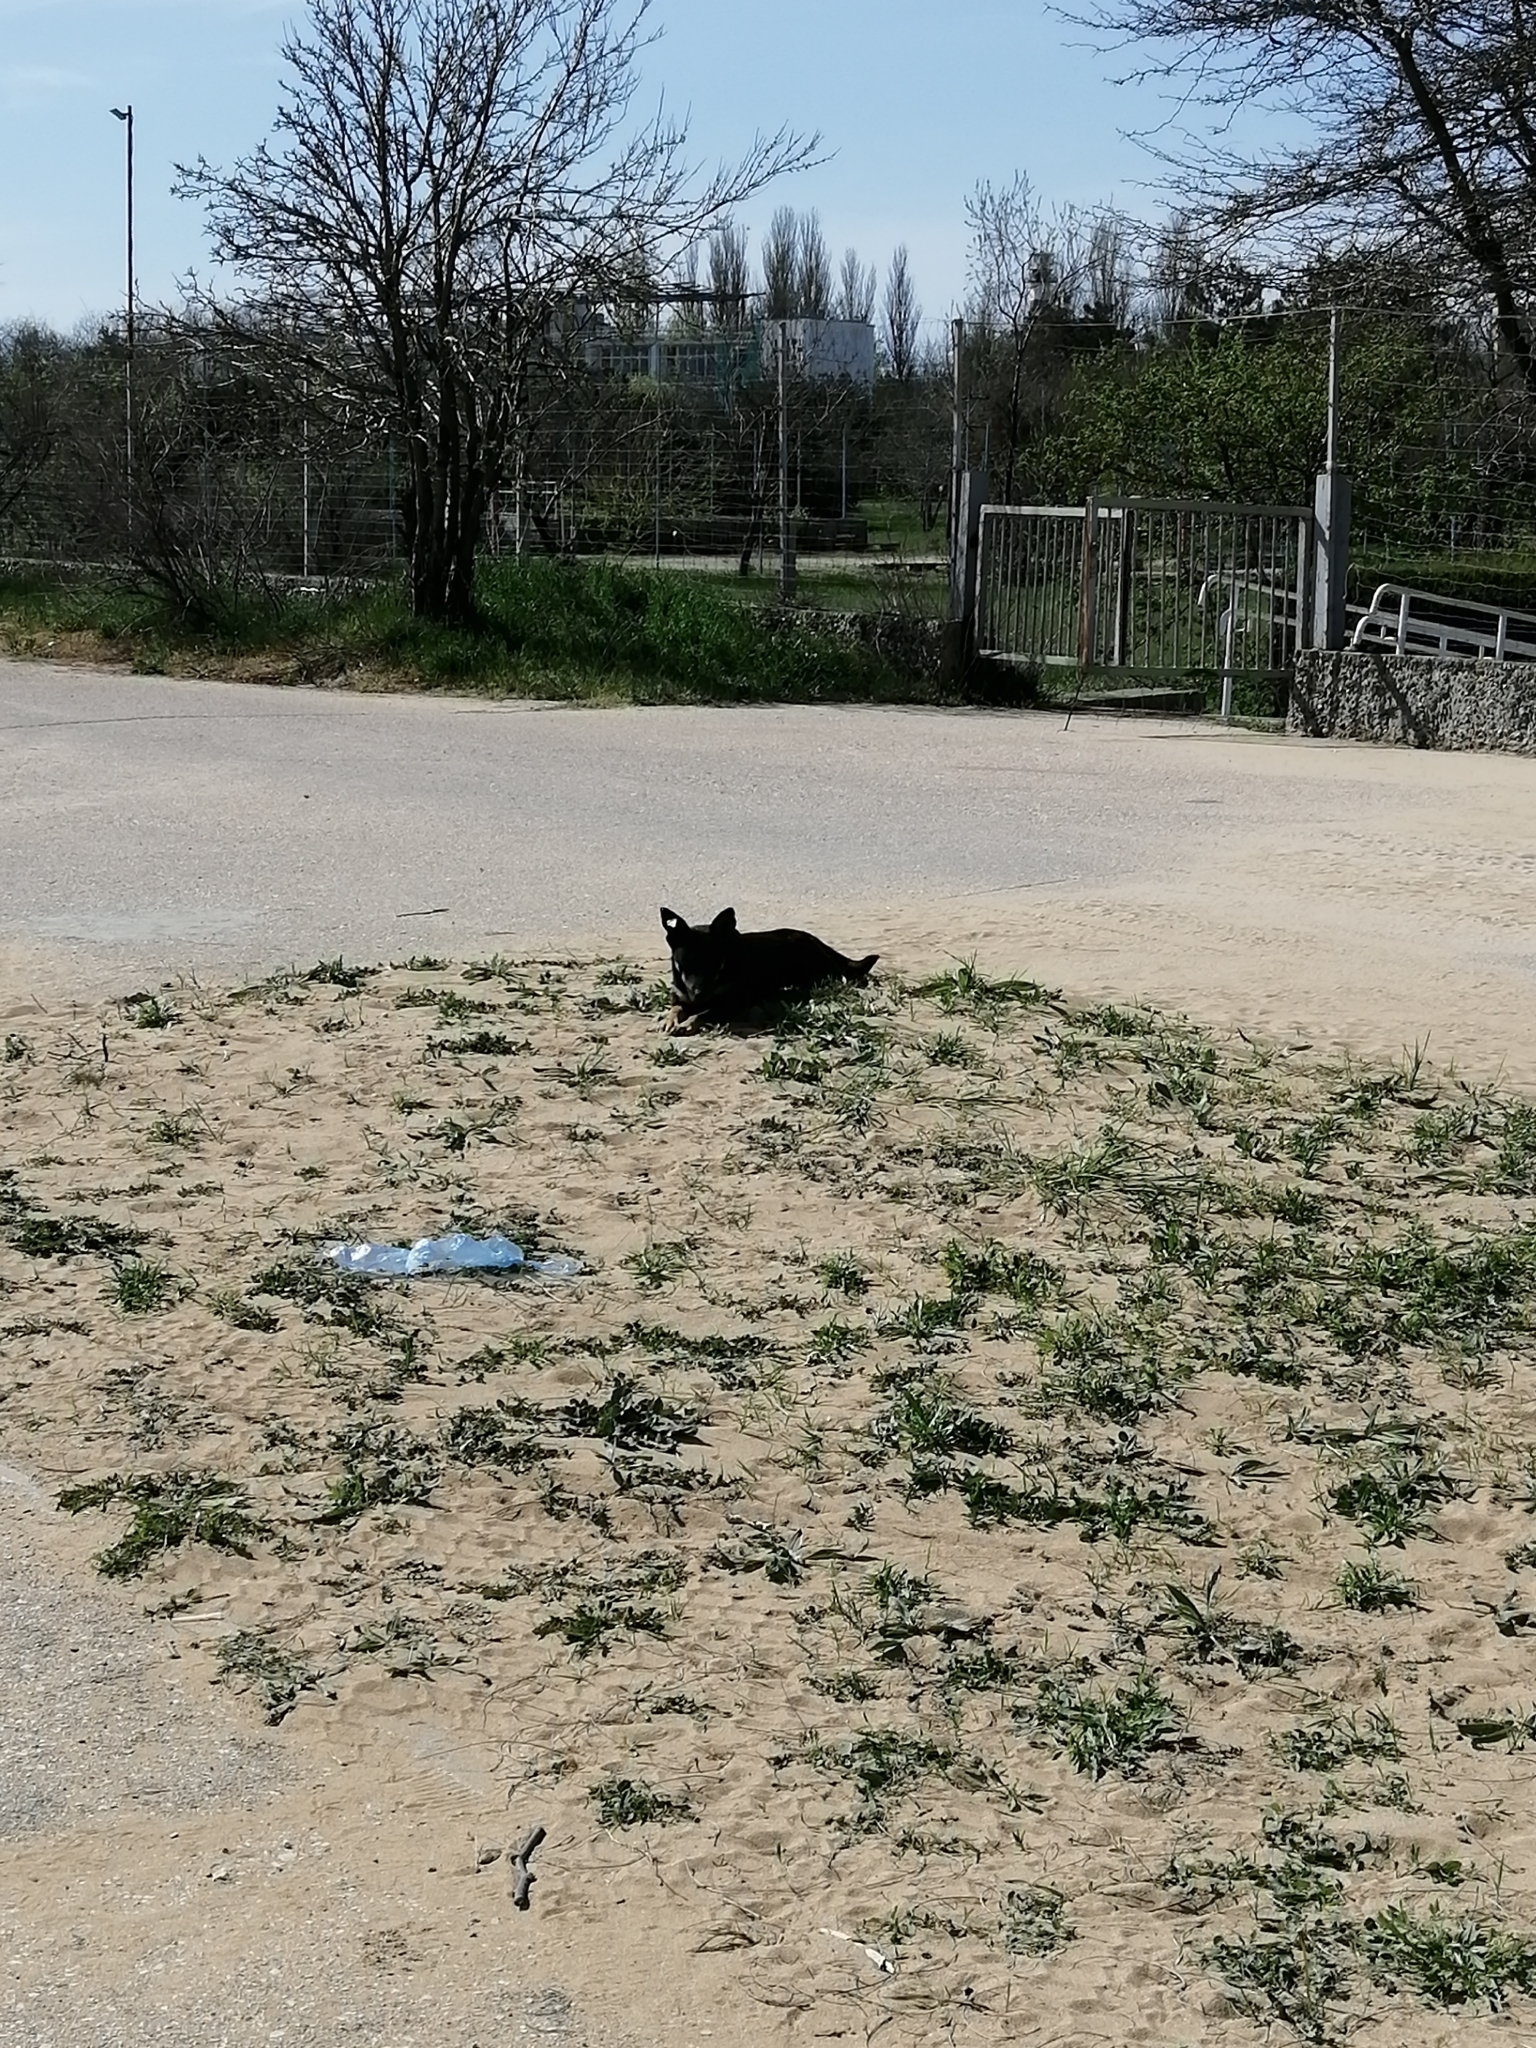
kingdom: Animalia
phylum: Chordata
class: Mammalia
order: Carnivora
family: Canidae
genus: Canis
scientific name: Canis lupus
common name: Gray wolf
